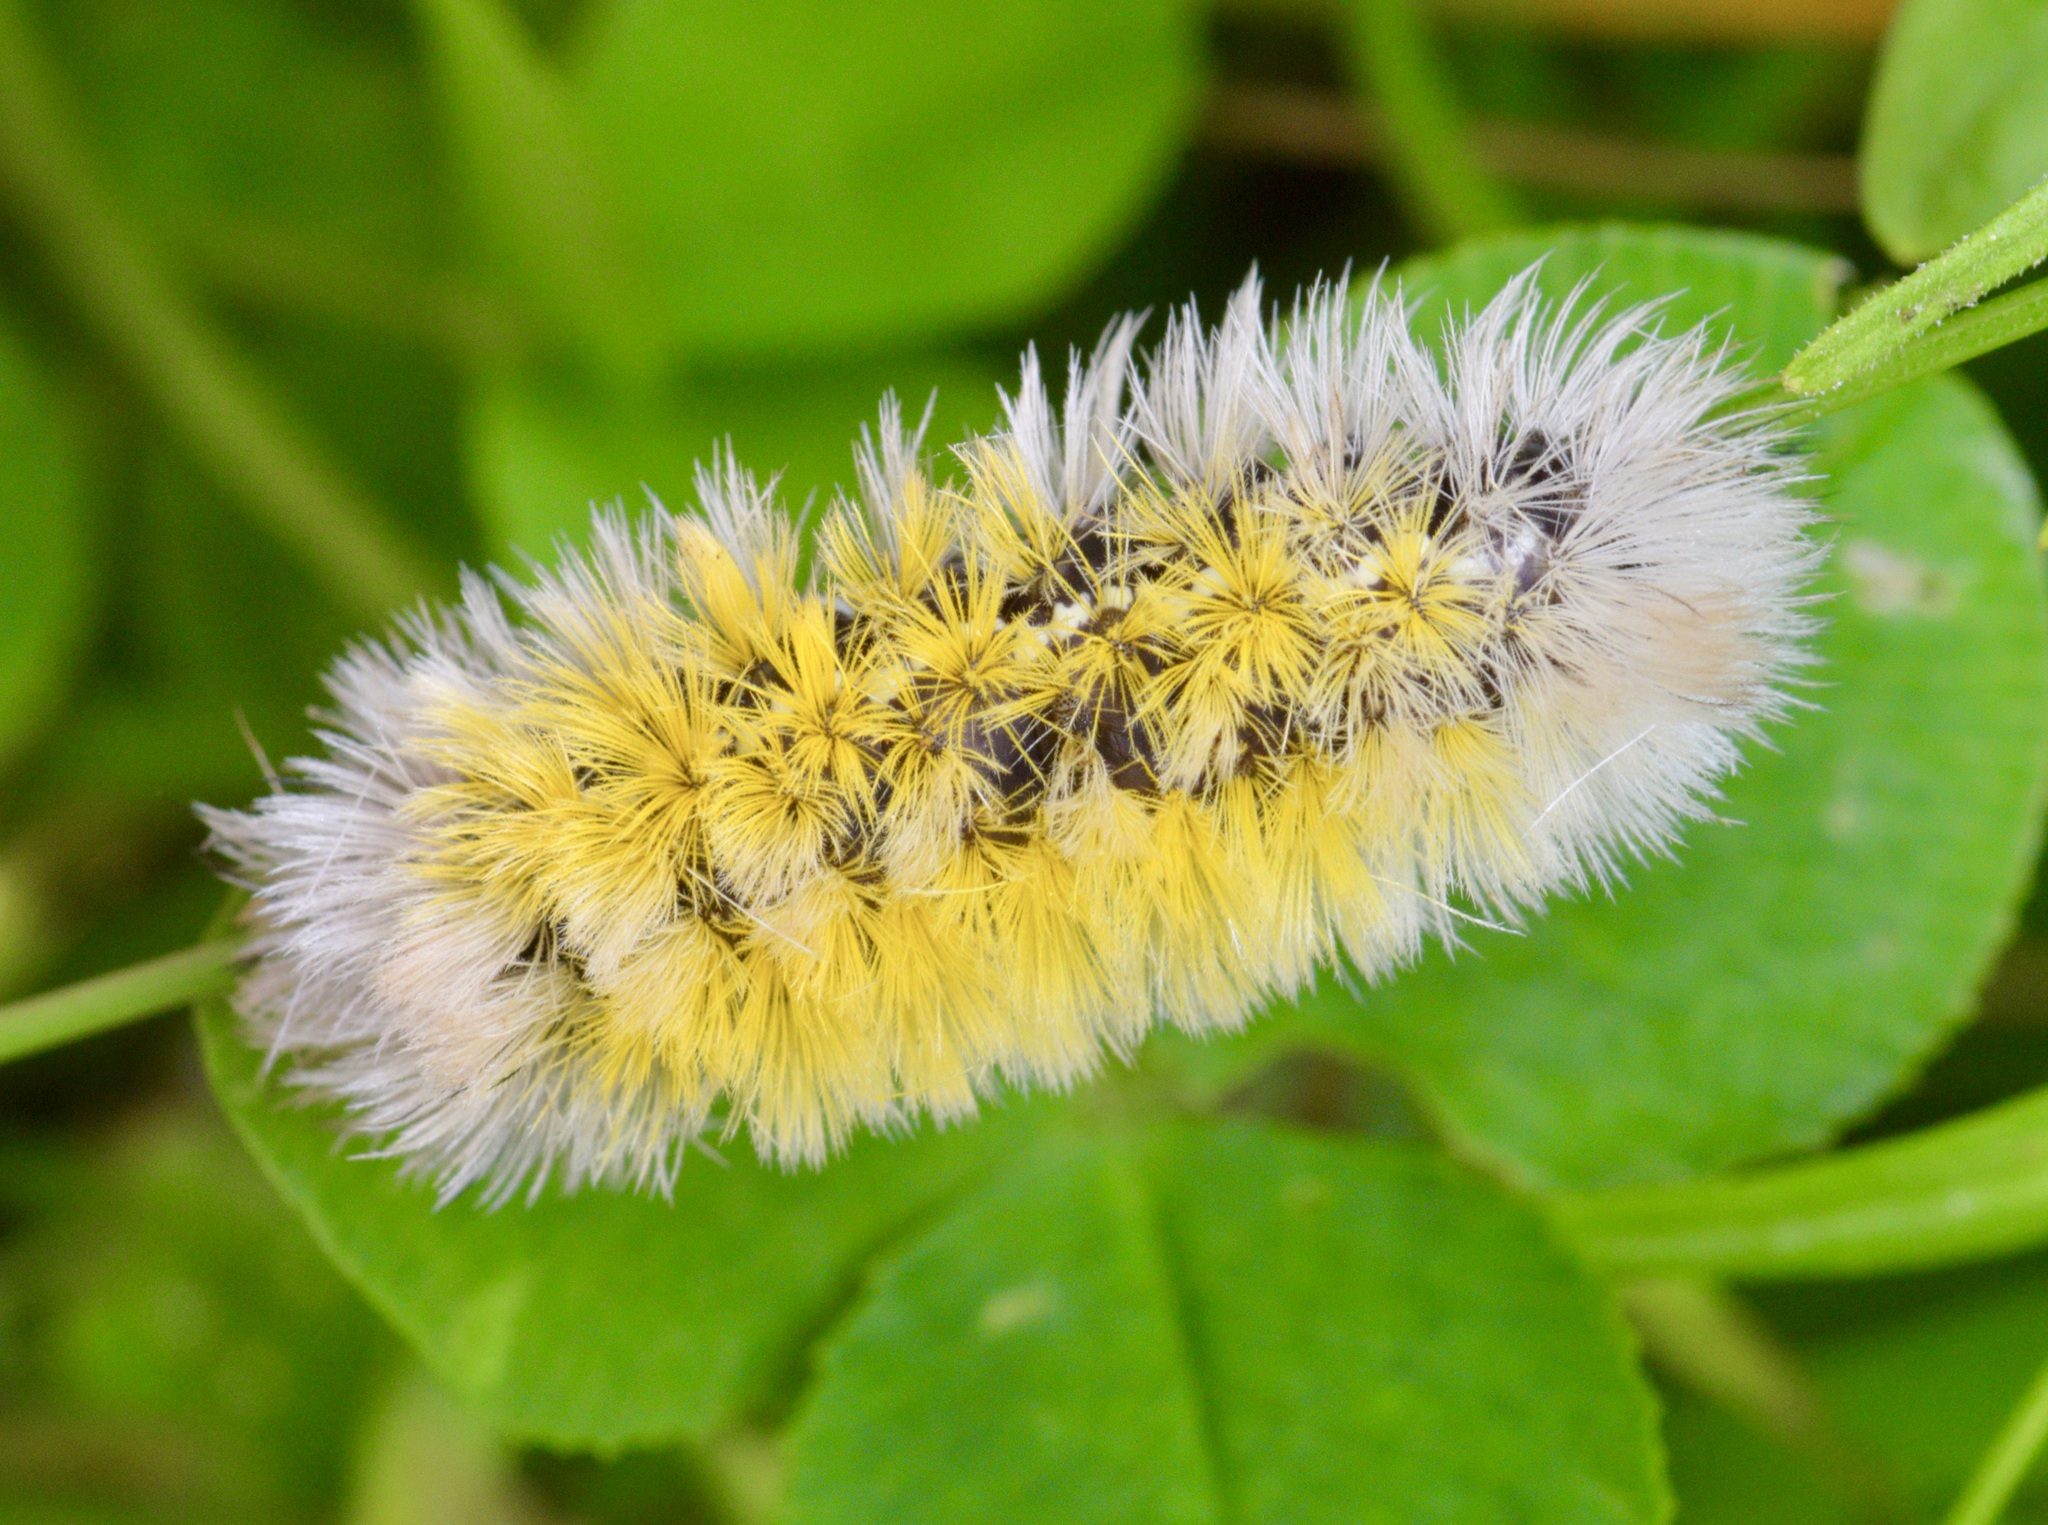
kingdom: Animalia
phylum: Arthropoda
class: Insecta
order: Lepidoptera
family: Erebidae
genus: Ctenucha
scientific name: Ctenucha virginica
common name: Virginia ctenucha moth
